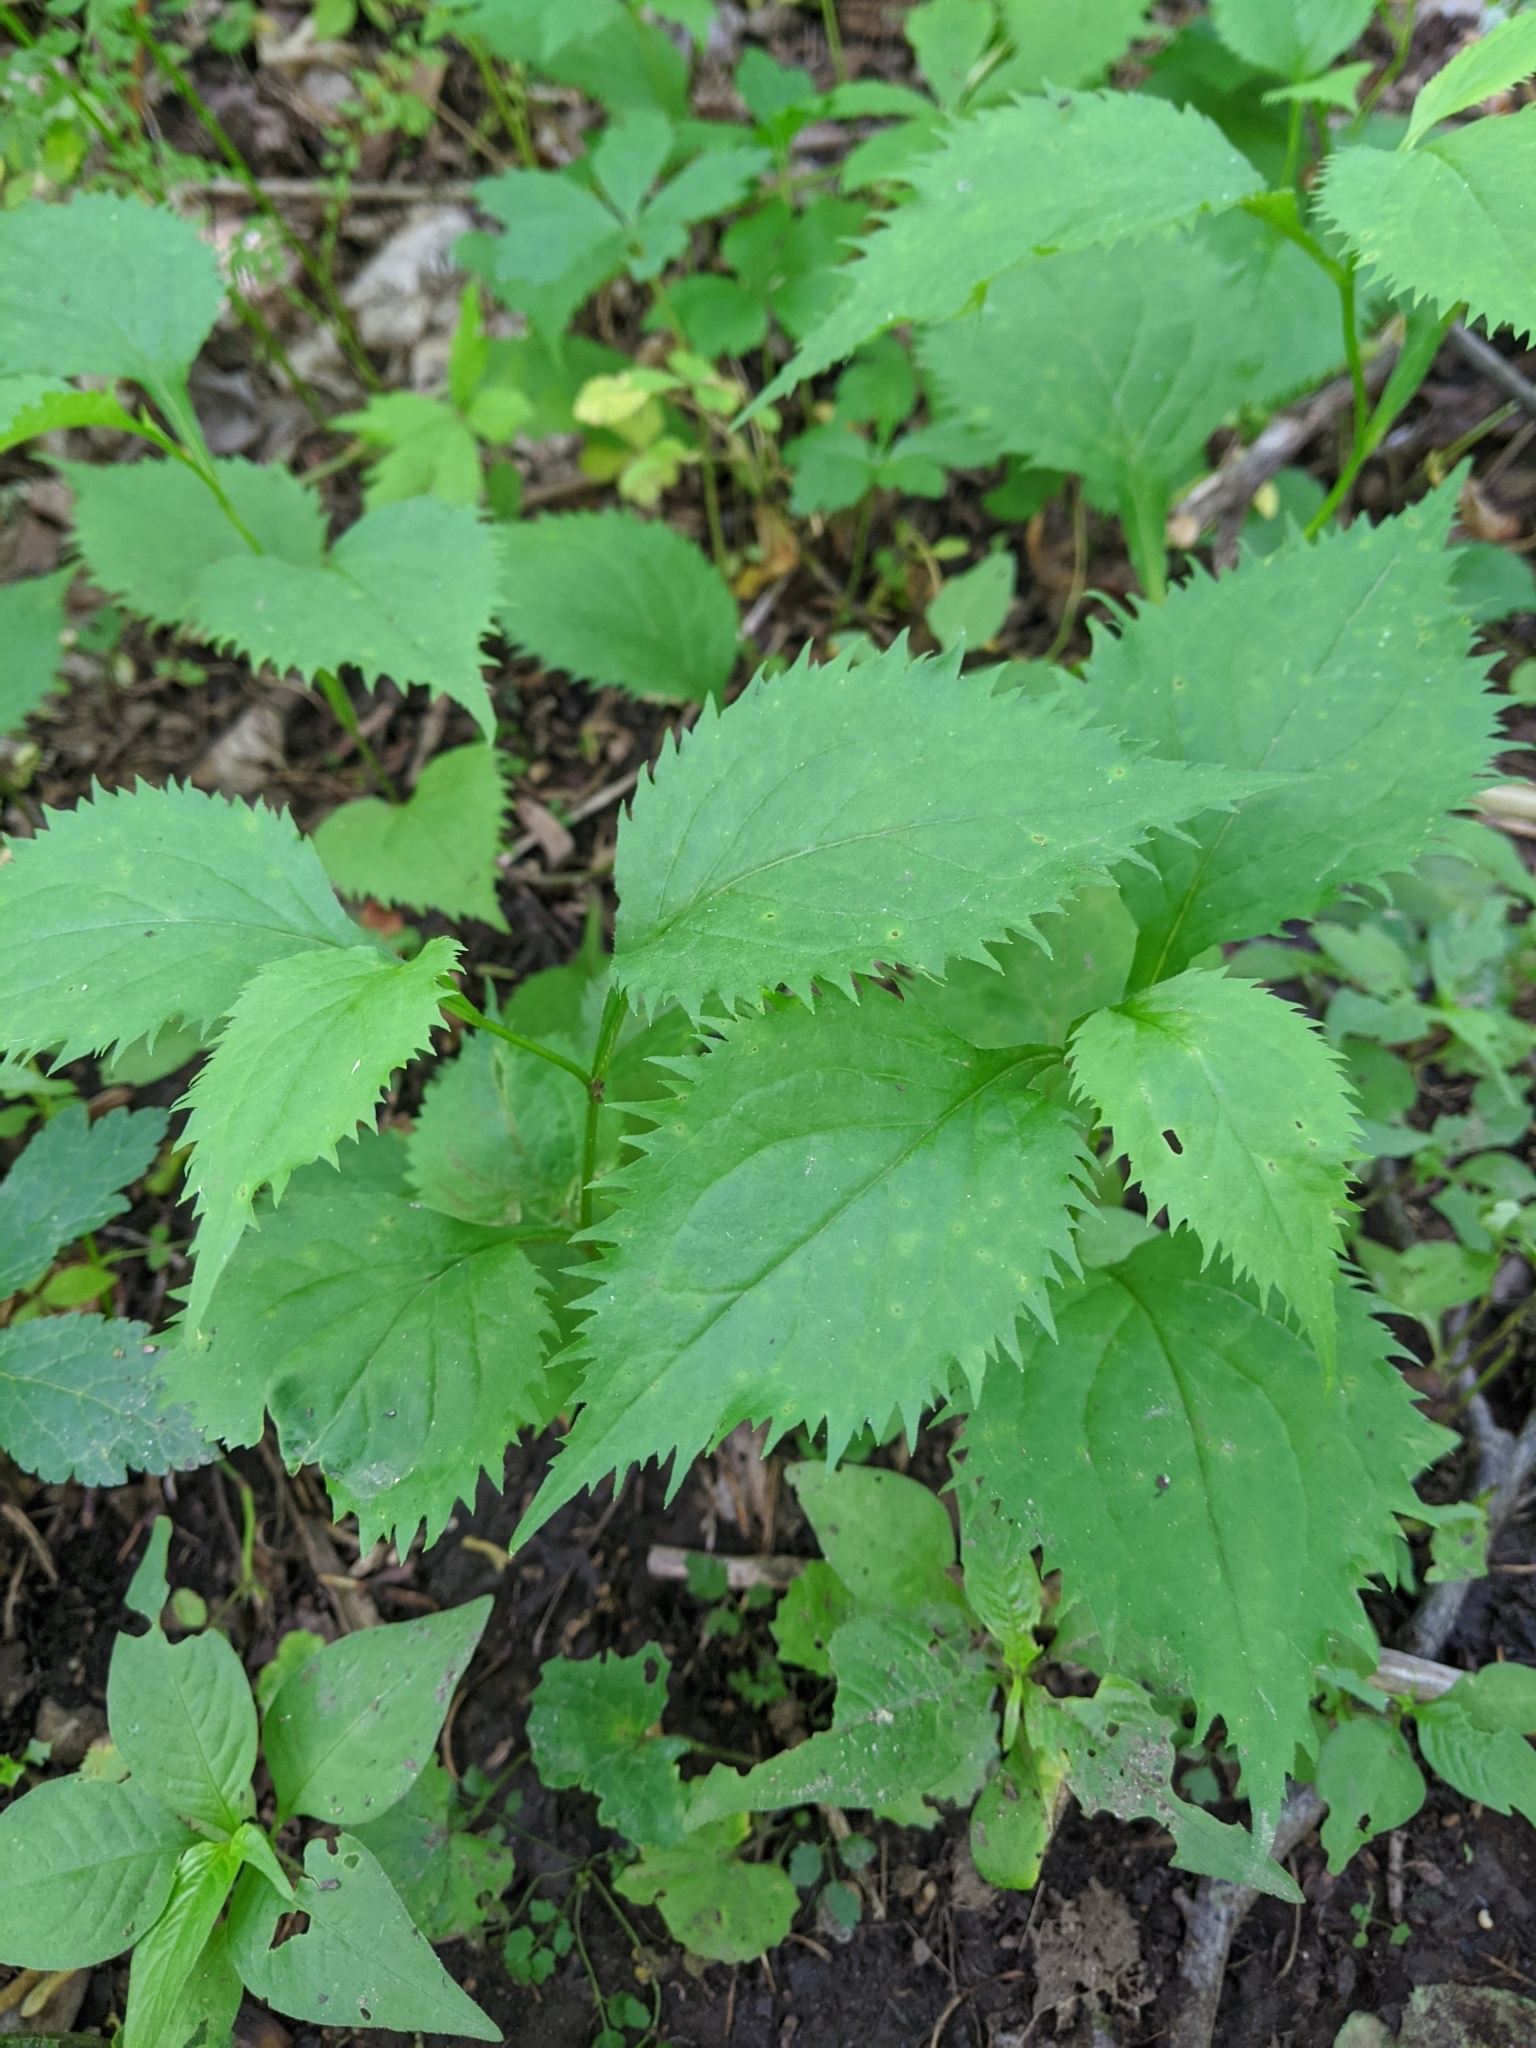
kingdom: Plantae
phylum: Tracheophyta
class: Magnoliopsida
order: Asterales
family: Asteraceae
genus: Solidago
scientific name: Solidago flexicaulis
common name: Zig-zag goldenrod
